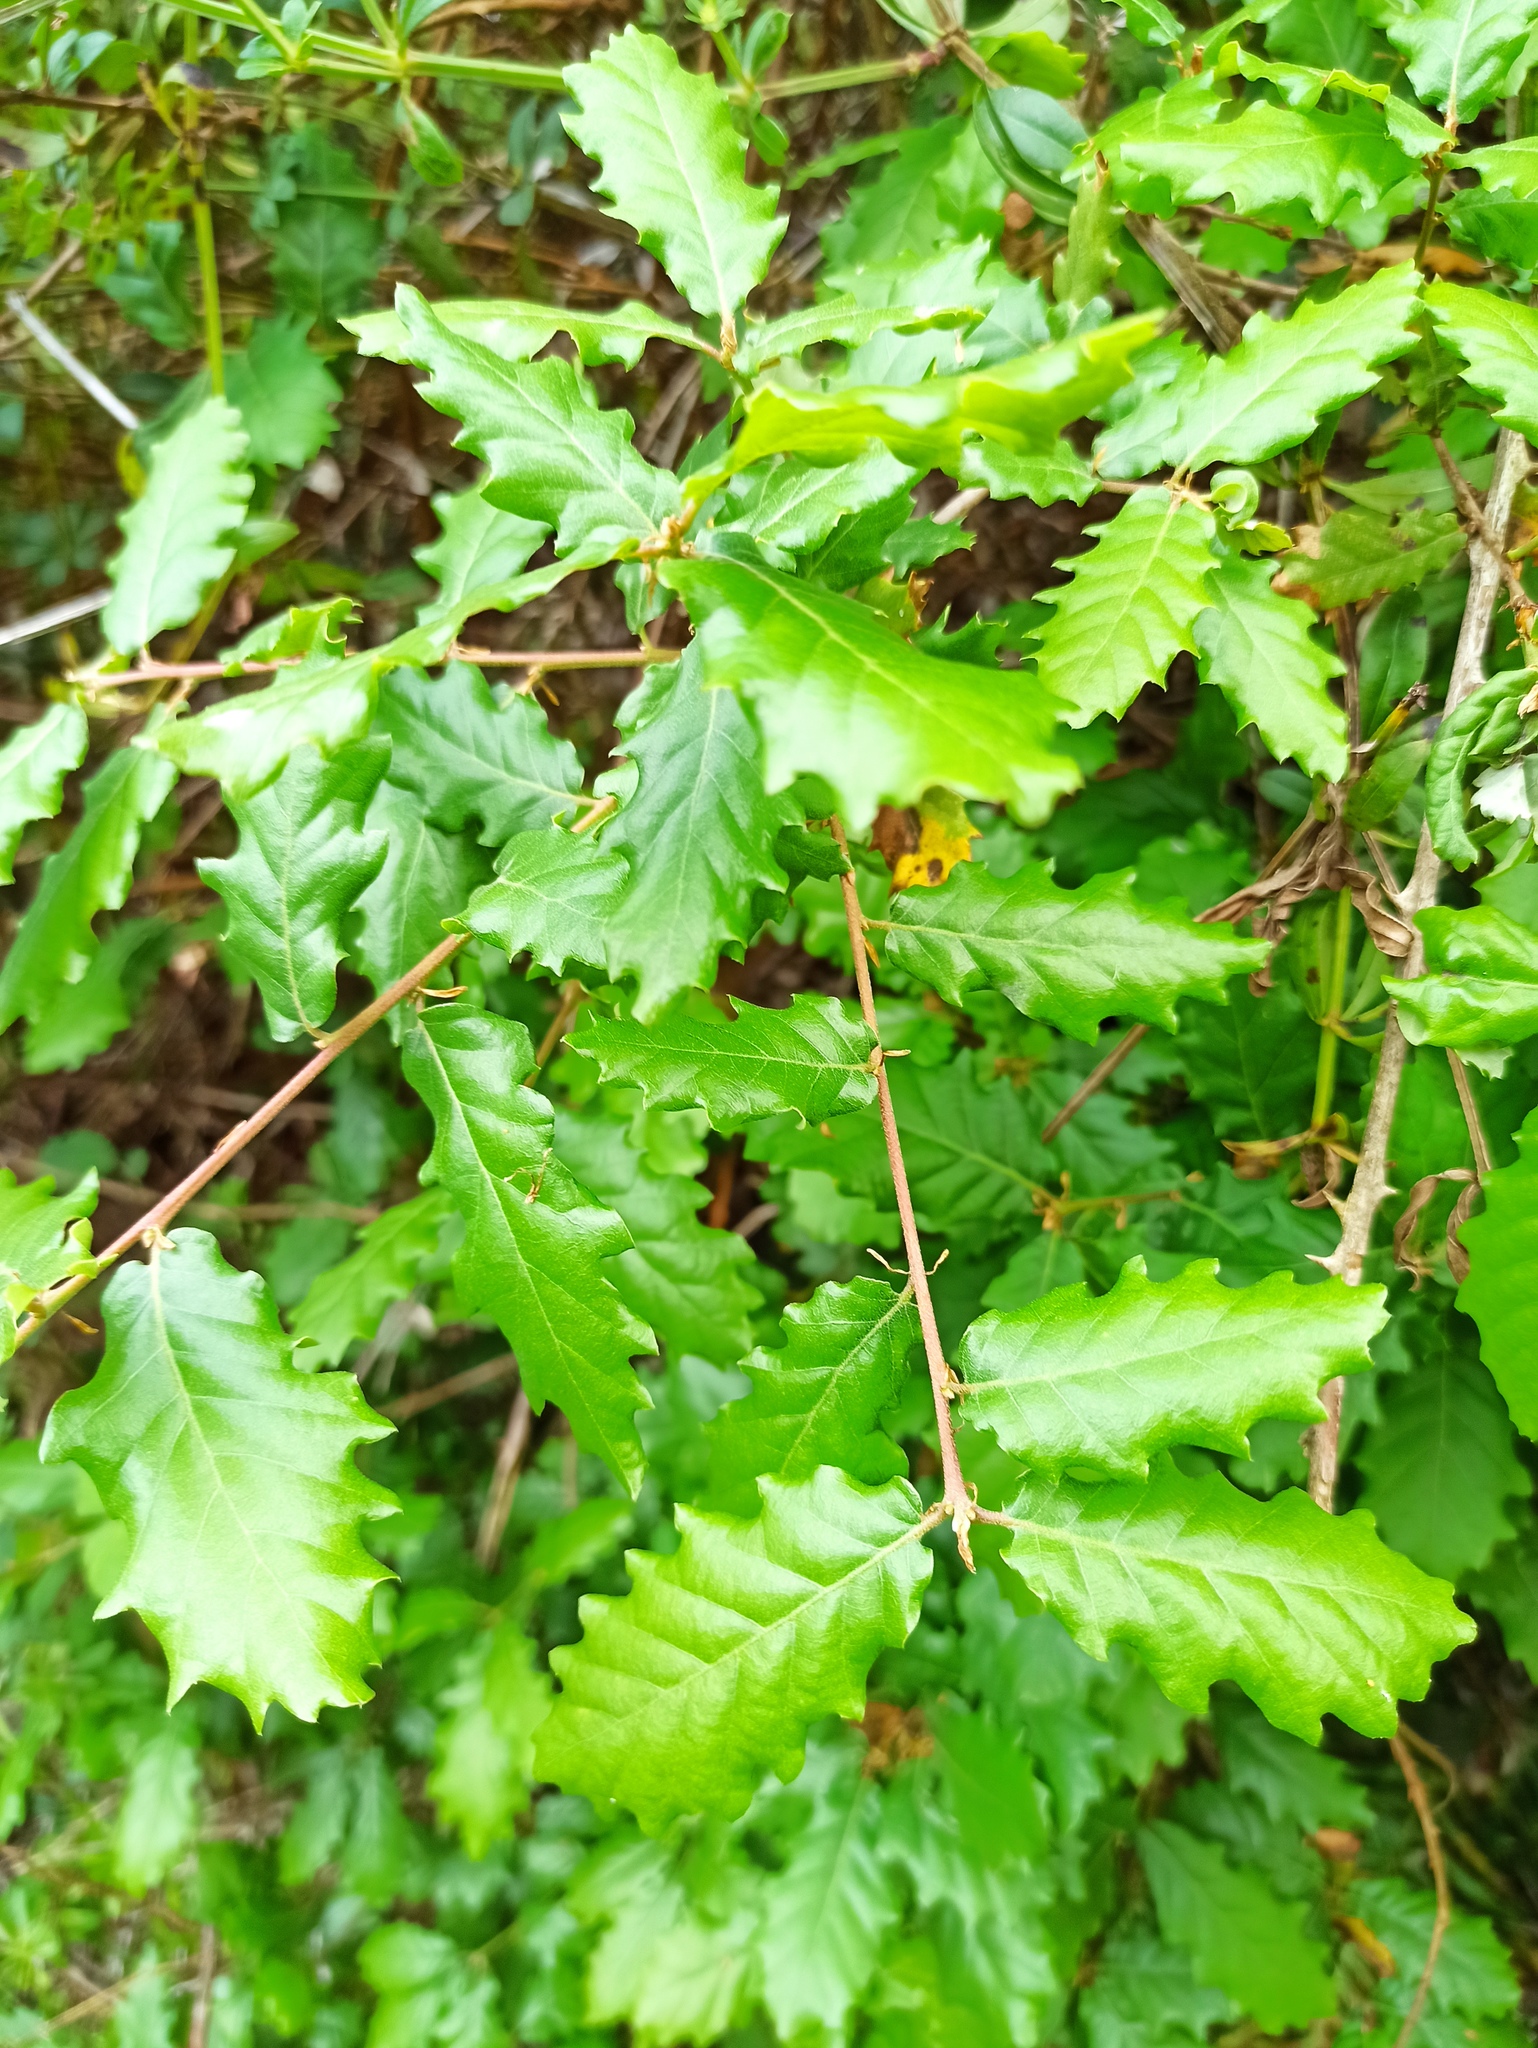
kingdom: Plantae
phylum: Tracheophyta
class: Magnoliopsida
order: Fagales
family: Fagaceae
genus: Quercus
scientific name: Quercus faginea
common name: Gall oak tree
